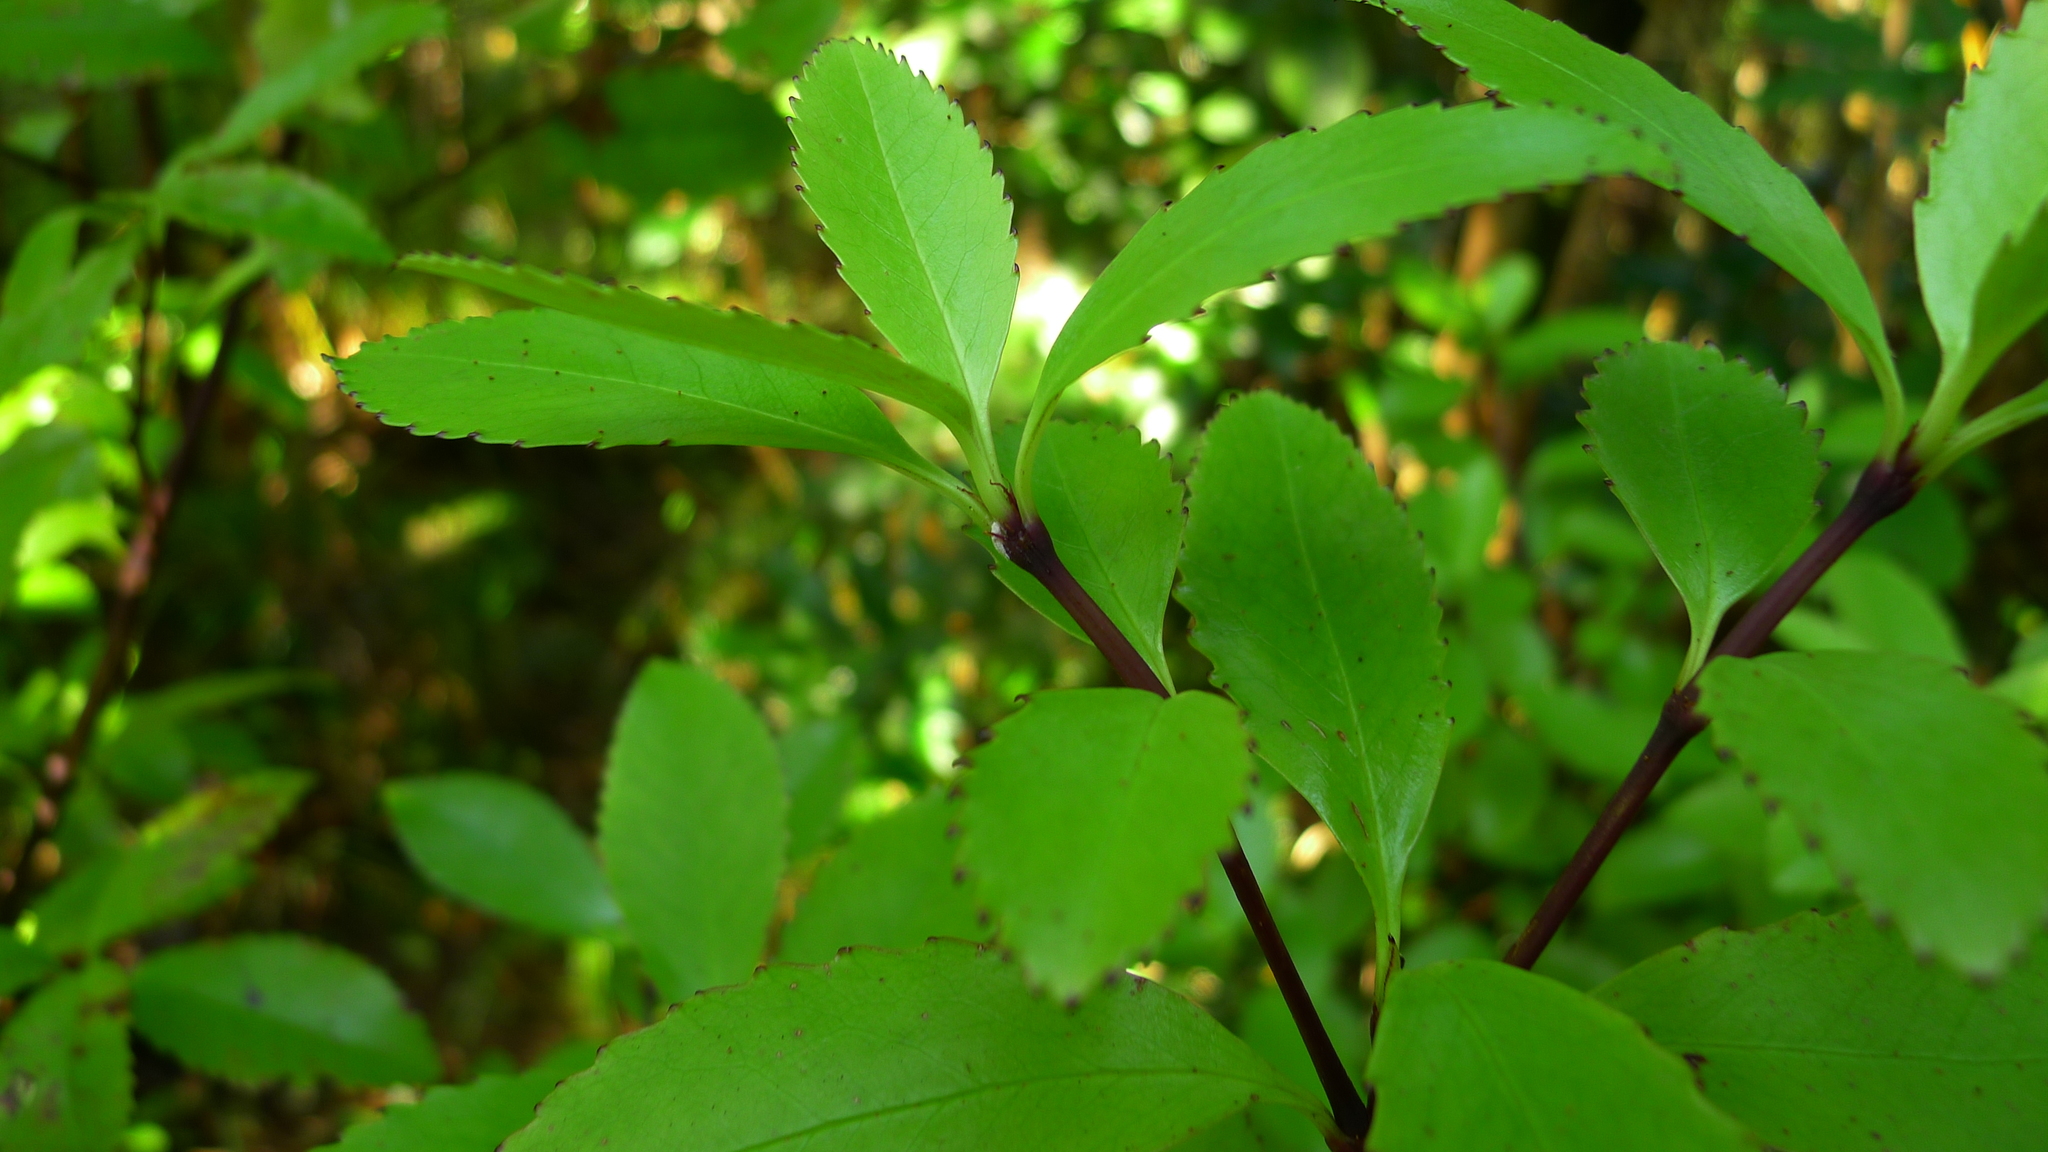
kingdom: Plantae
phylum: Tracheophyta
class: Magnoliopsida
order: Chloranthales
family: Chloranthaceae
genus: Ascarina
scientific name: Ascarina lucida
